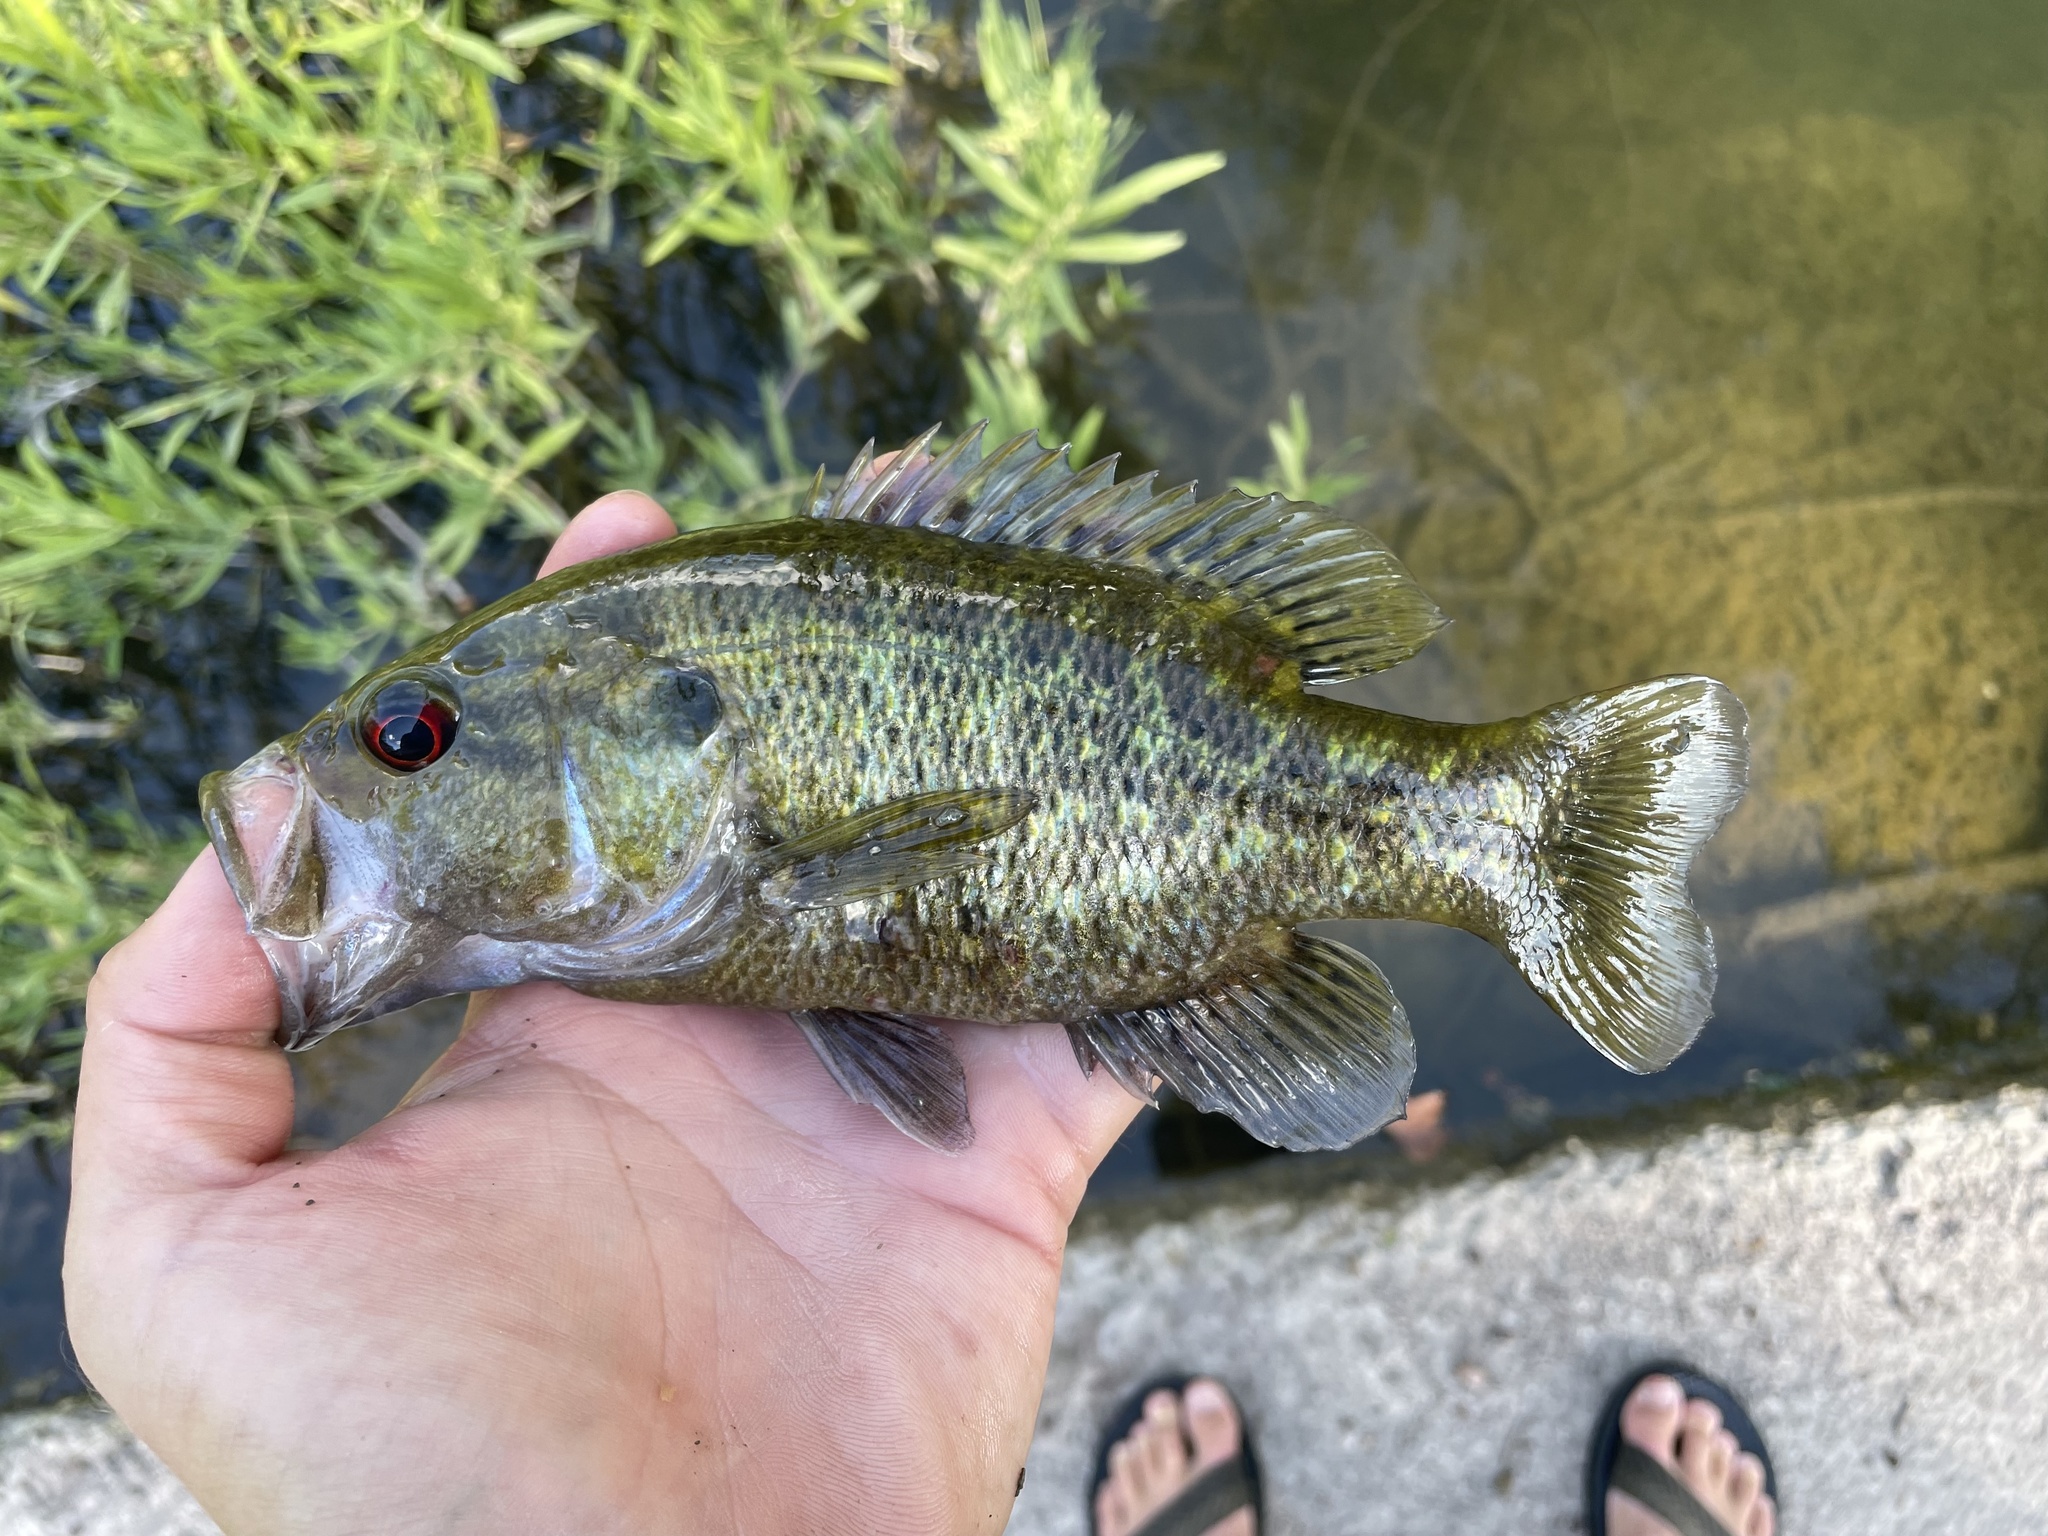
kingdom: Animalia
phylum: Chordata
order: Perciformes
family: Centrarchidae
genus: Lepomis
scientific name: Lepomis gulosus
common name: Warmouth
